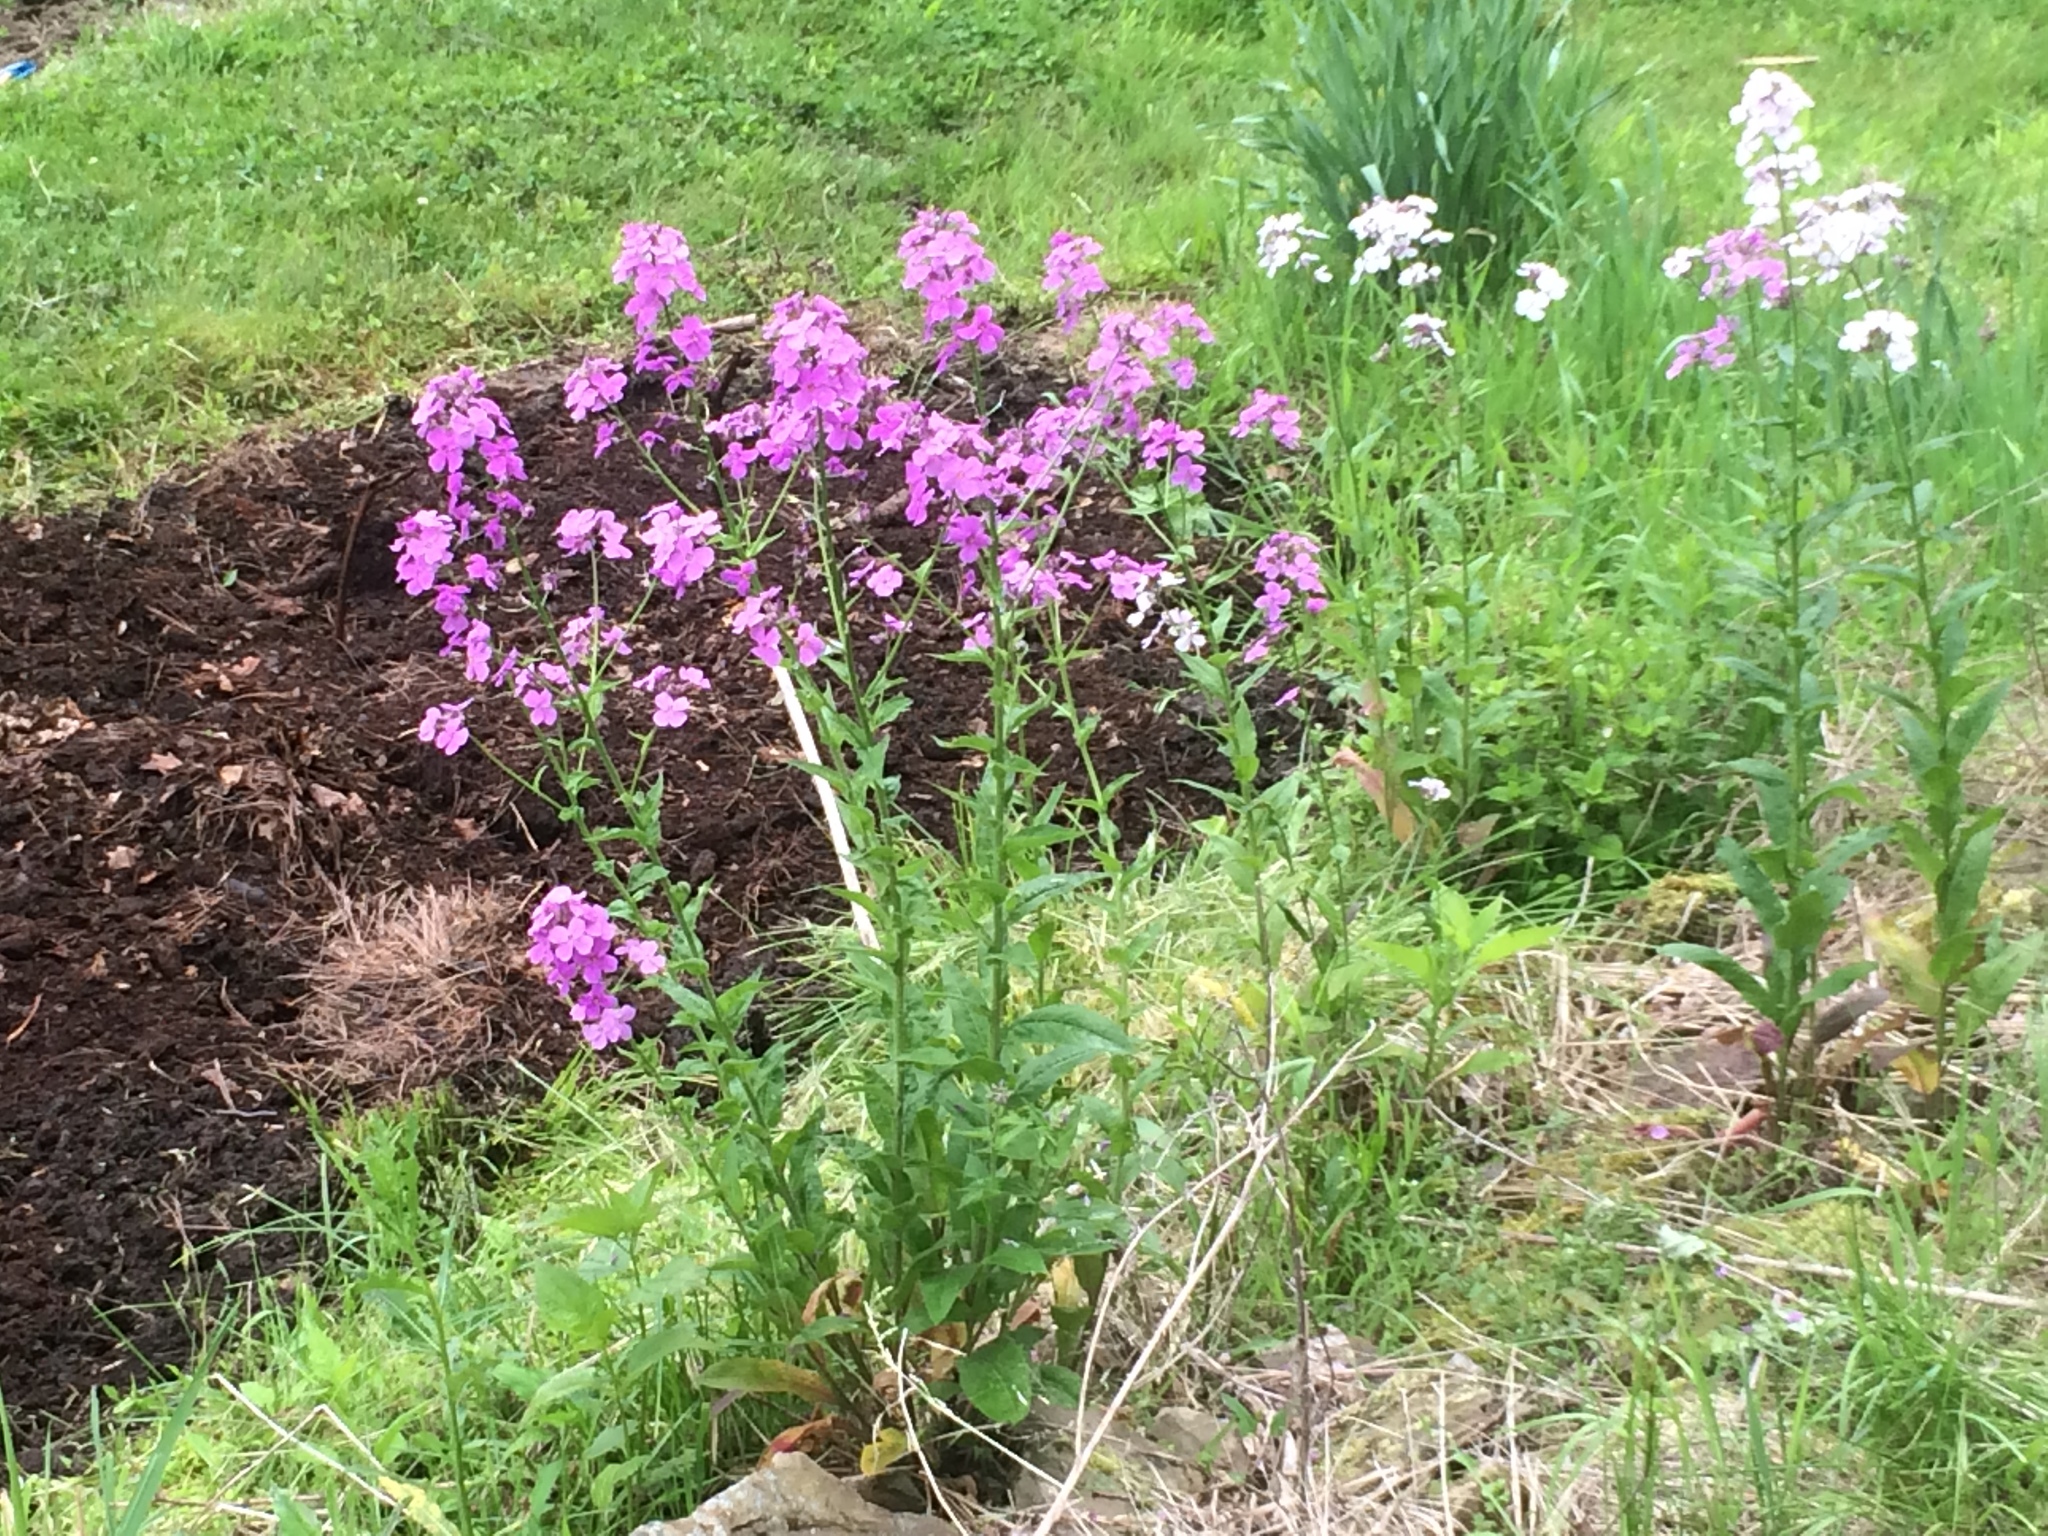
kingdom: Plantae
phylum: Tracheophyta
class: Magnoliopsida
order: Brassicales
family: Brassicaceae
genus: Hesperis
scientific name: Hesperis matronalis
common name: Dame's-violet
